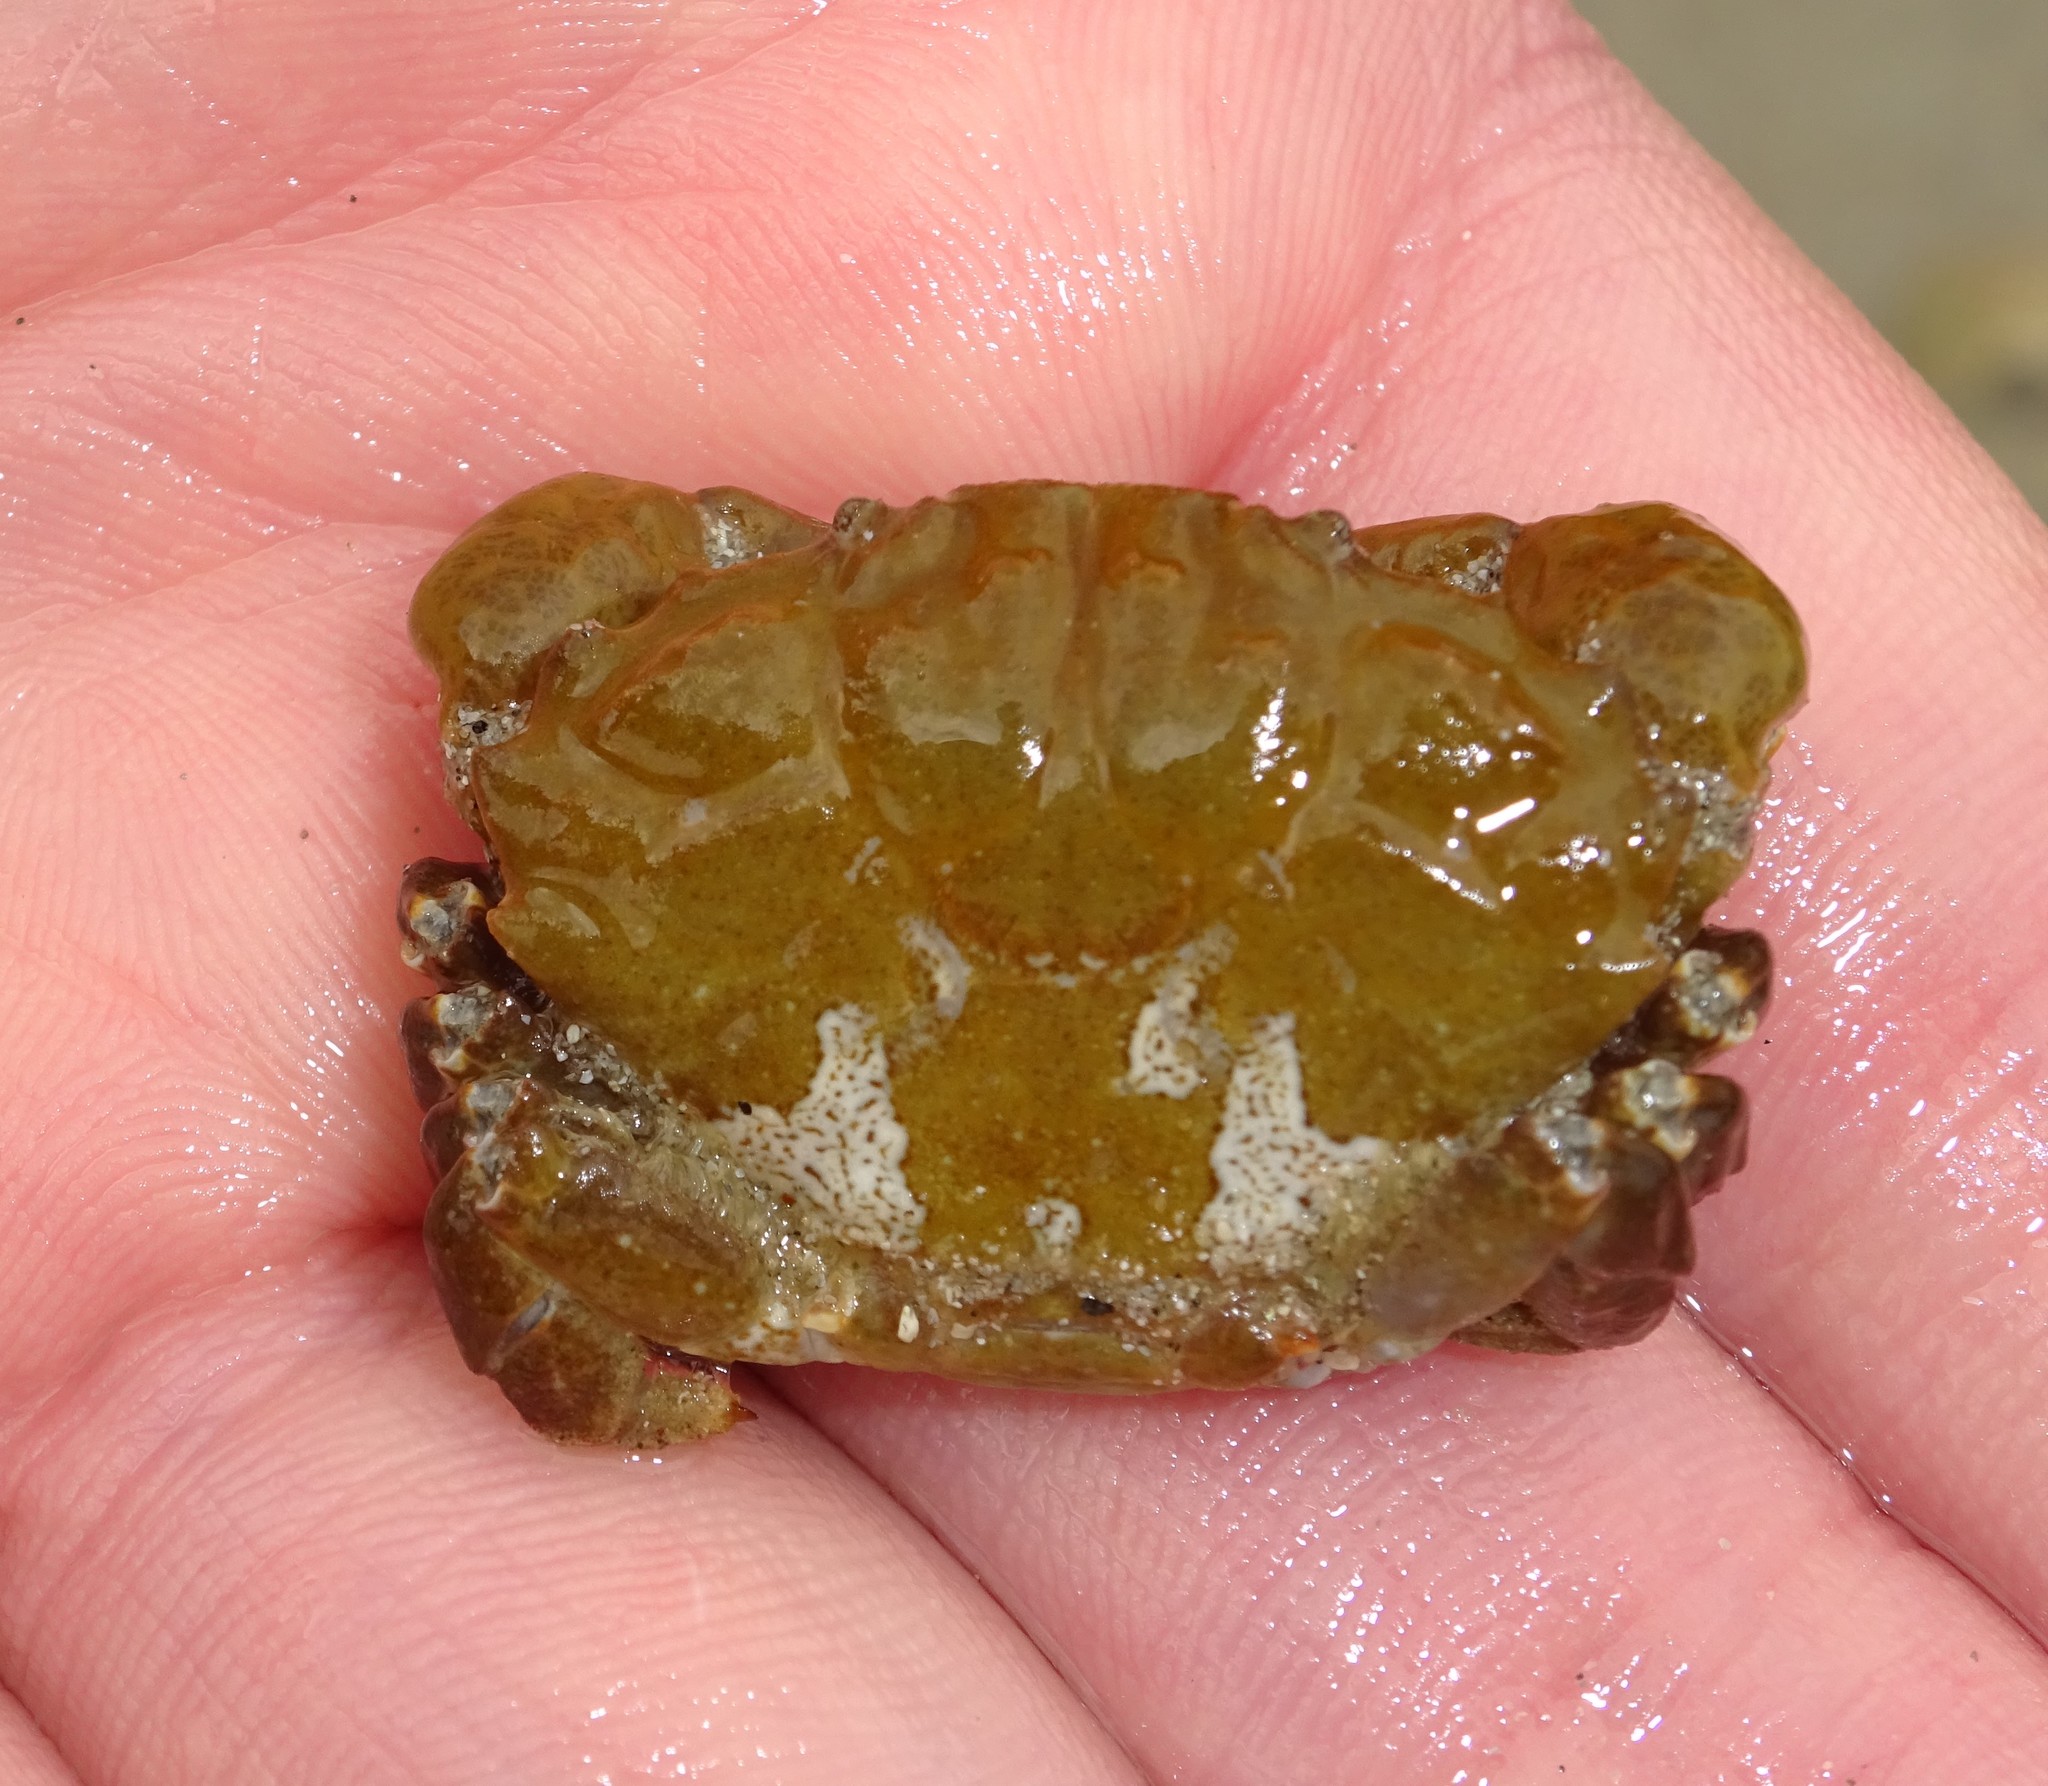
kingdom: Animalia
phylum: Arthropoda
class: Malacostraca
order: Decapoda
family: Xanthidae
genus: Xantho
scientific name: Xantho hydrophilus
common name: Montagu's crab
